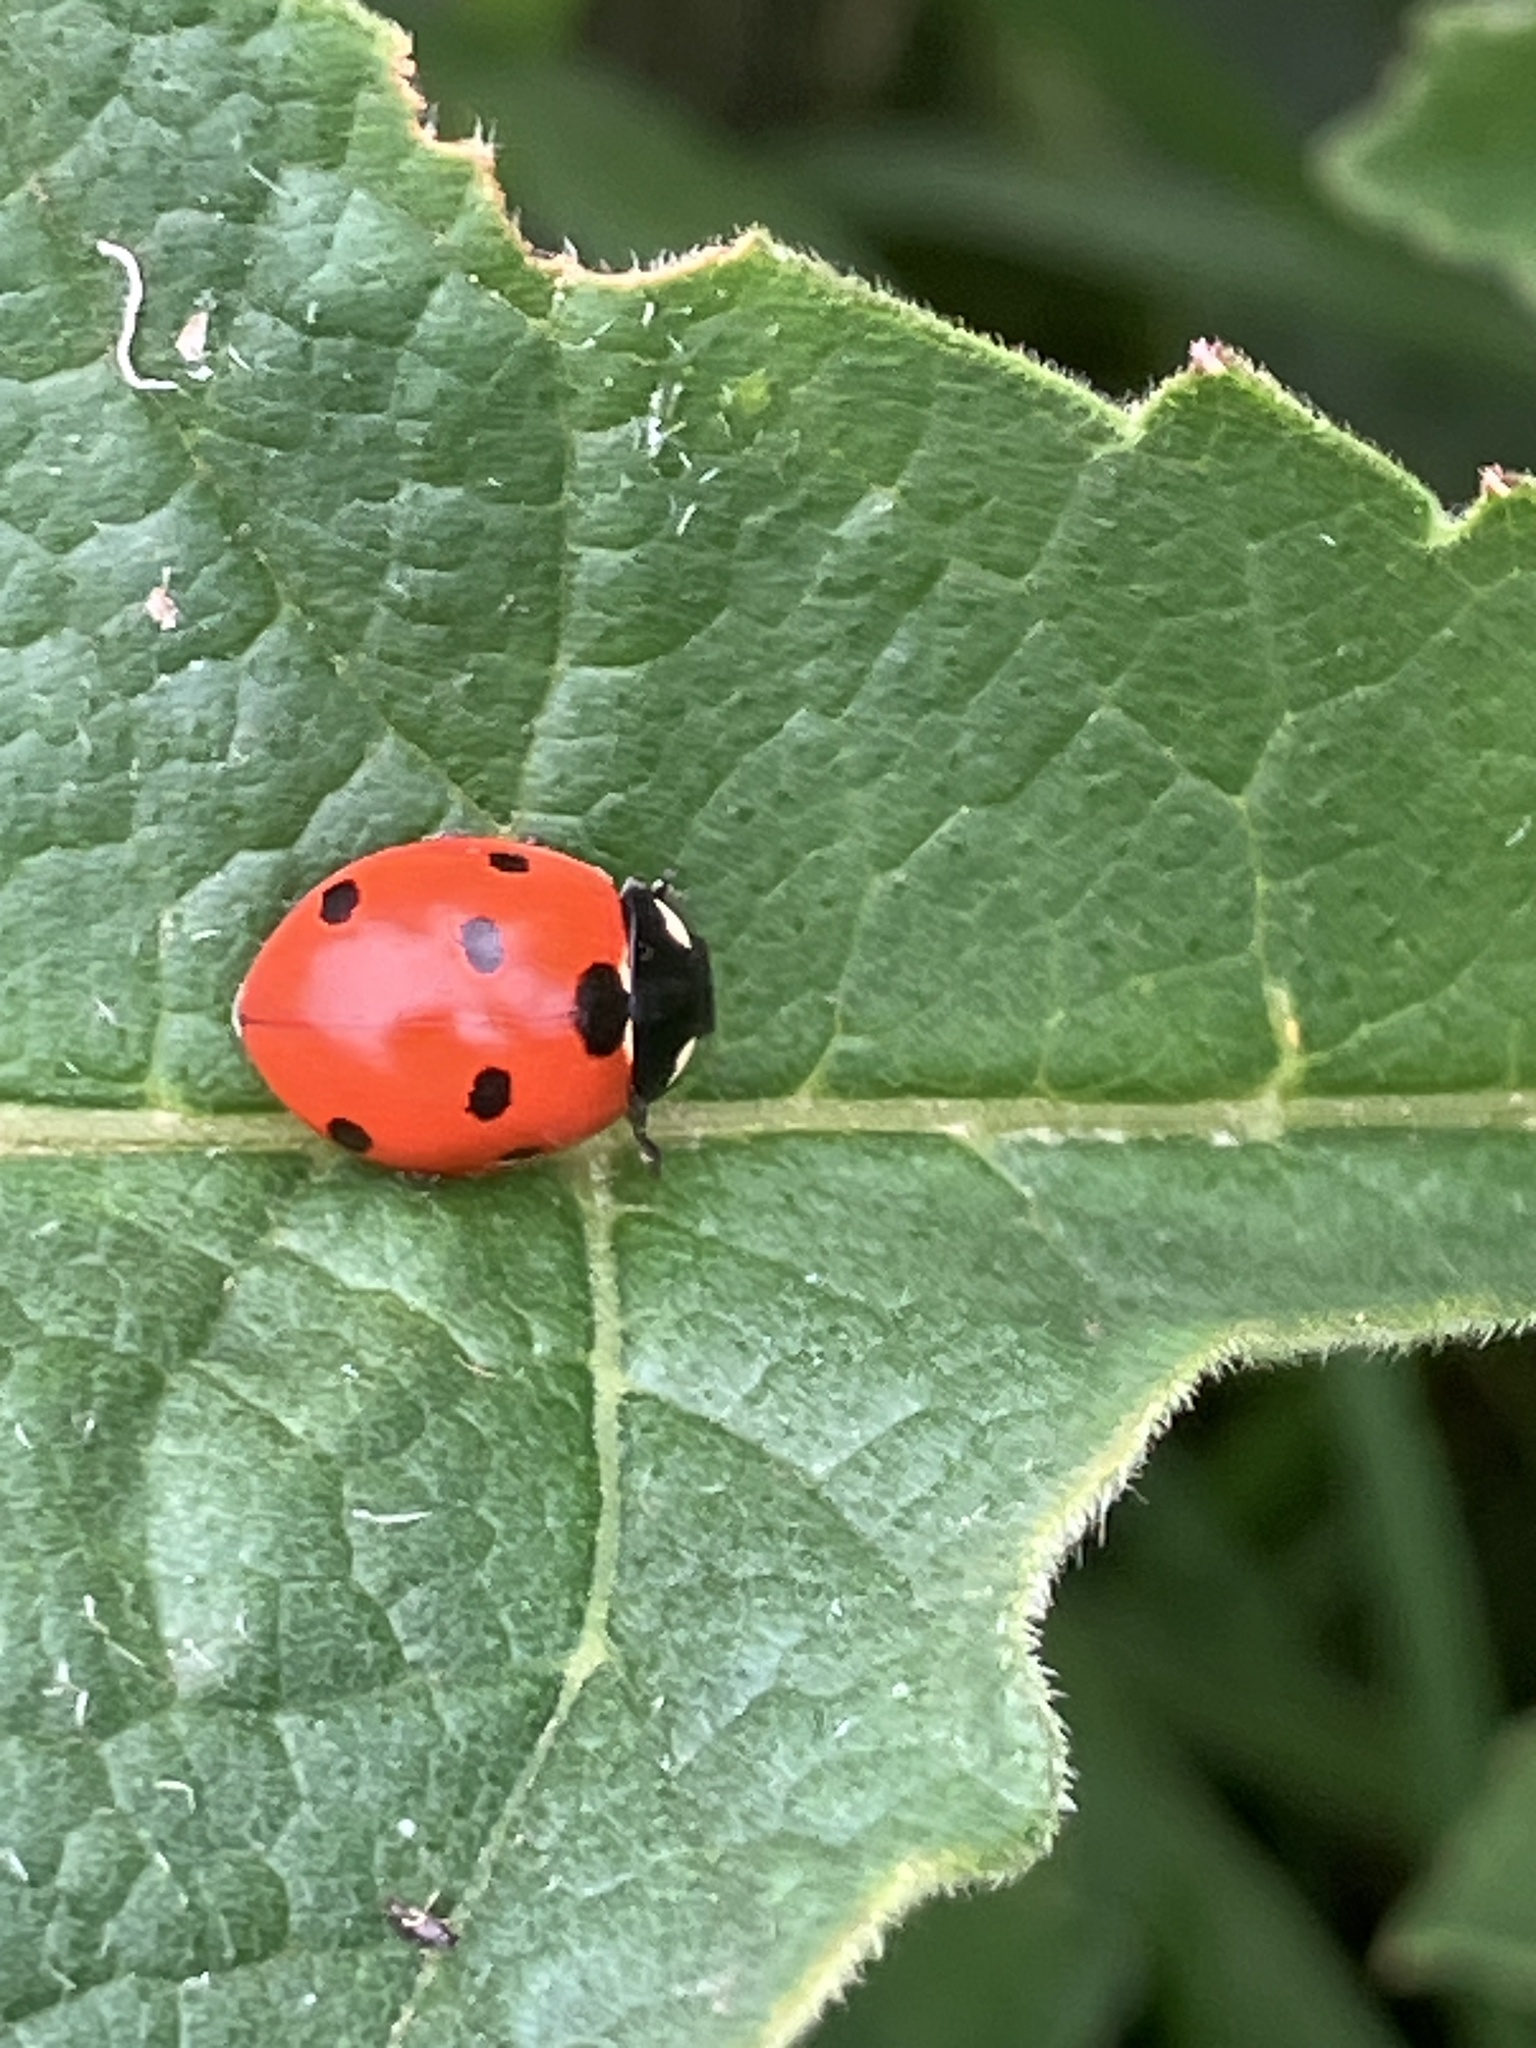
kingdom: Animalia
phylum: Arthropoda
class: Insecta
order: Coleoptera
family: Coccinellidae
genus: Coccinella
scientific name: Coccinella septempunctata
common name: Sevenspotted lady beetle
